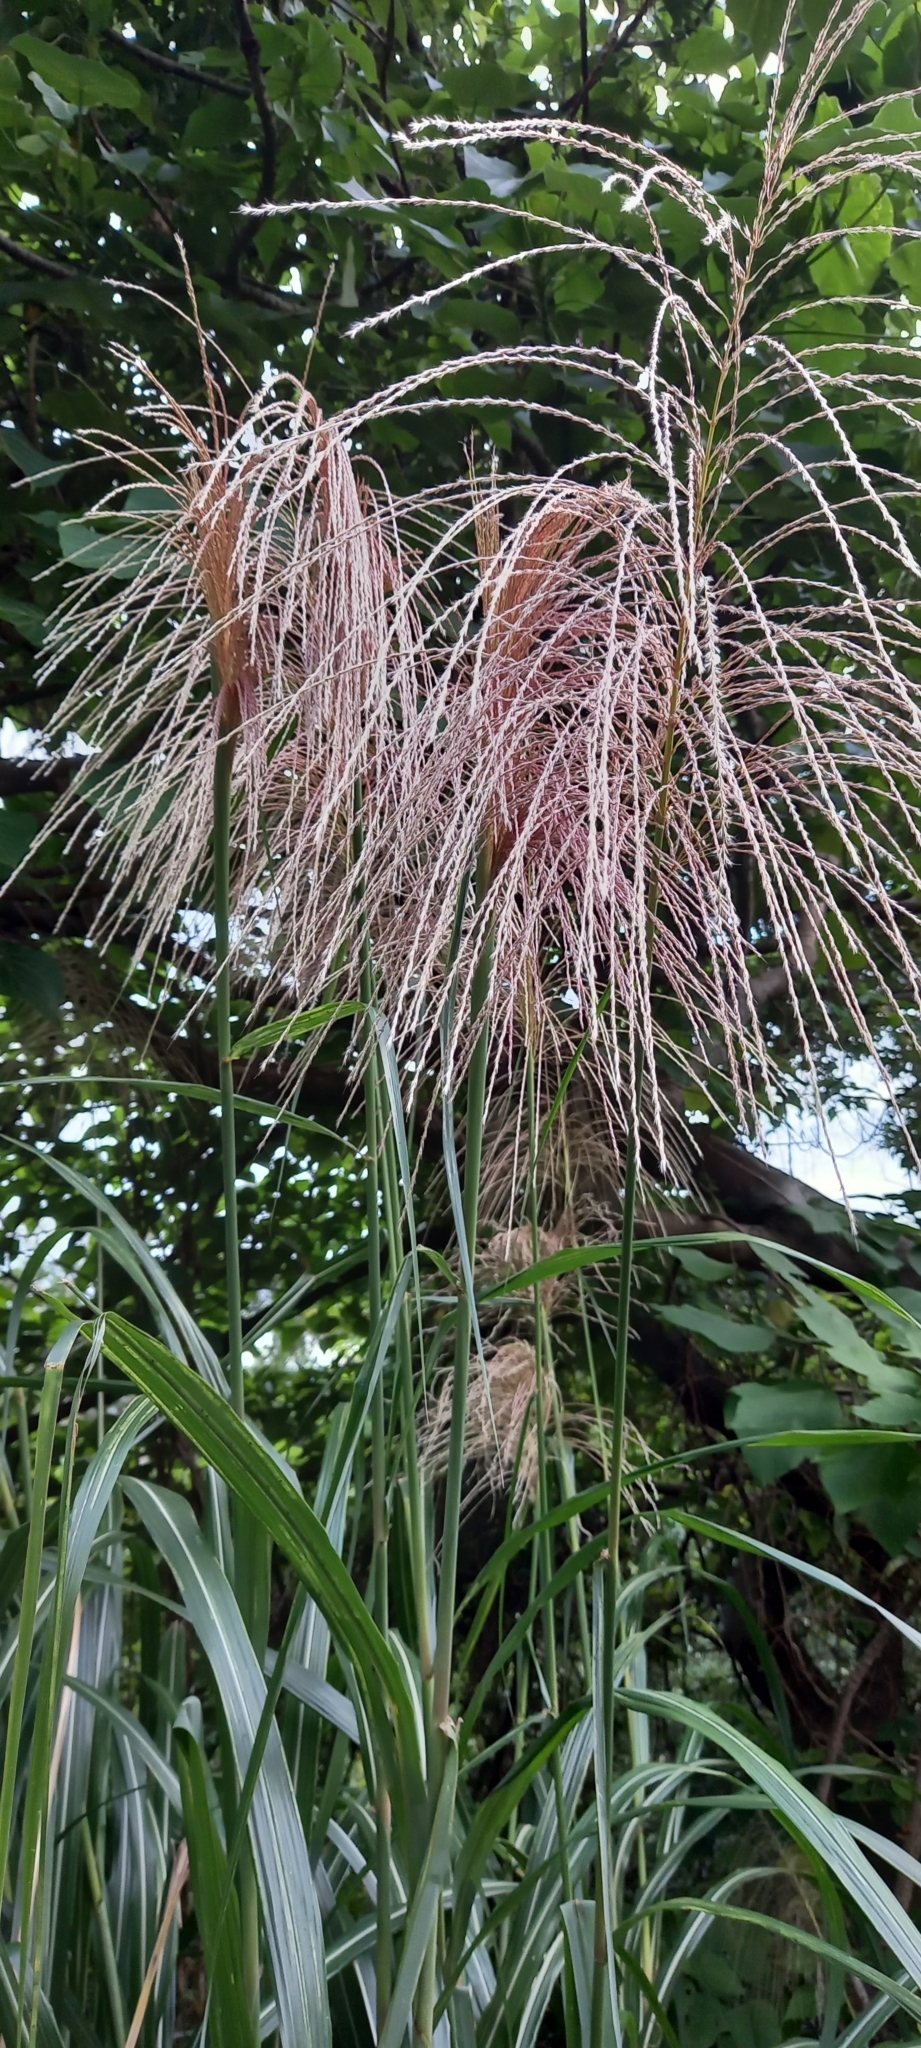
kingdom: Plantae
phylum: Tracheophyta
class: Liliopsida
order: Poales
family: Poaceae
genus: Miscanthus
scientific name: Miscanthus sinensis
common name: Chinese silvergrass
